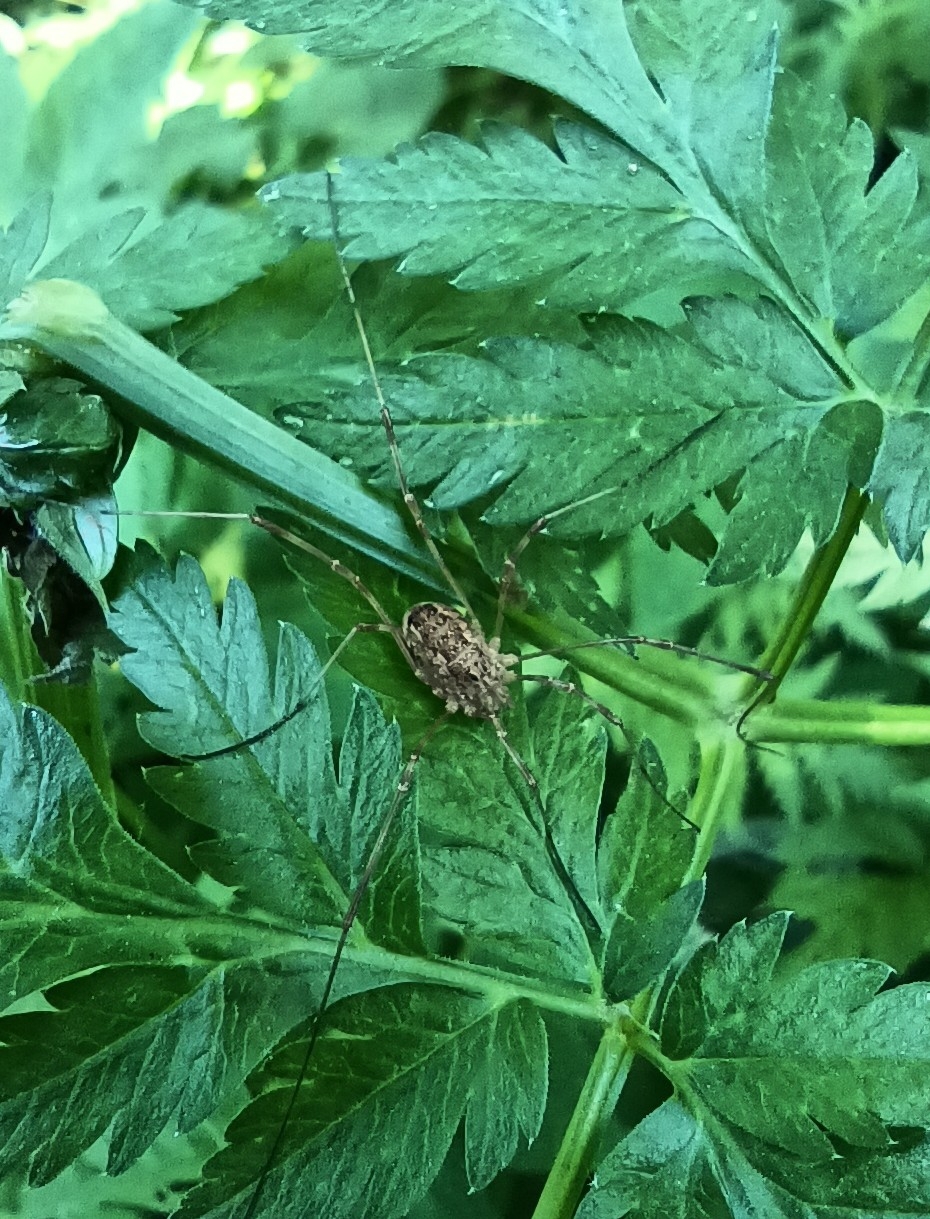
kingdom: Animalia
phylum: Arthropoda
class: Arachnida
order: Opiliones
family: Phalangiidae
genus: Rilaena
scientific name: Rilaena triangularis
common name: Spring harvestman
